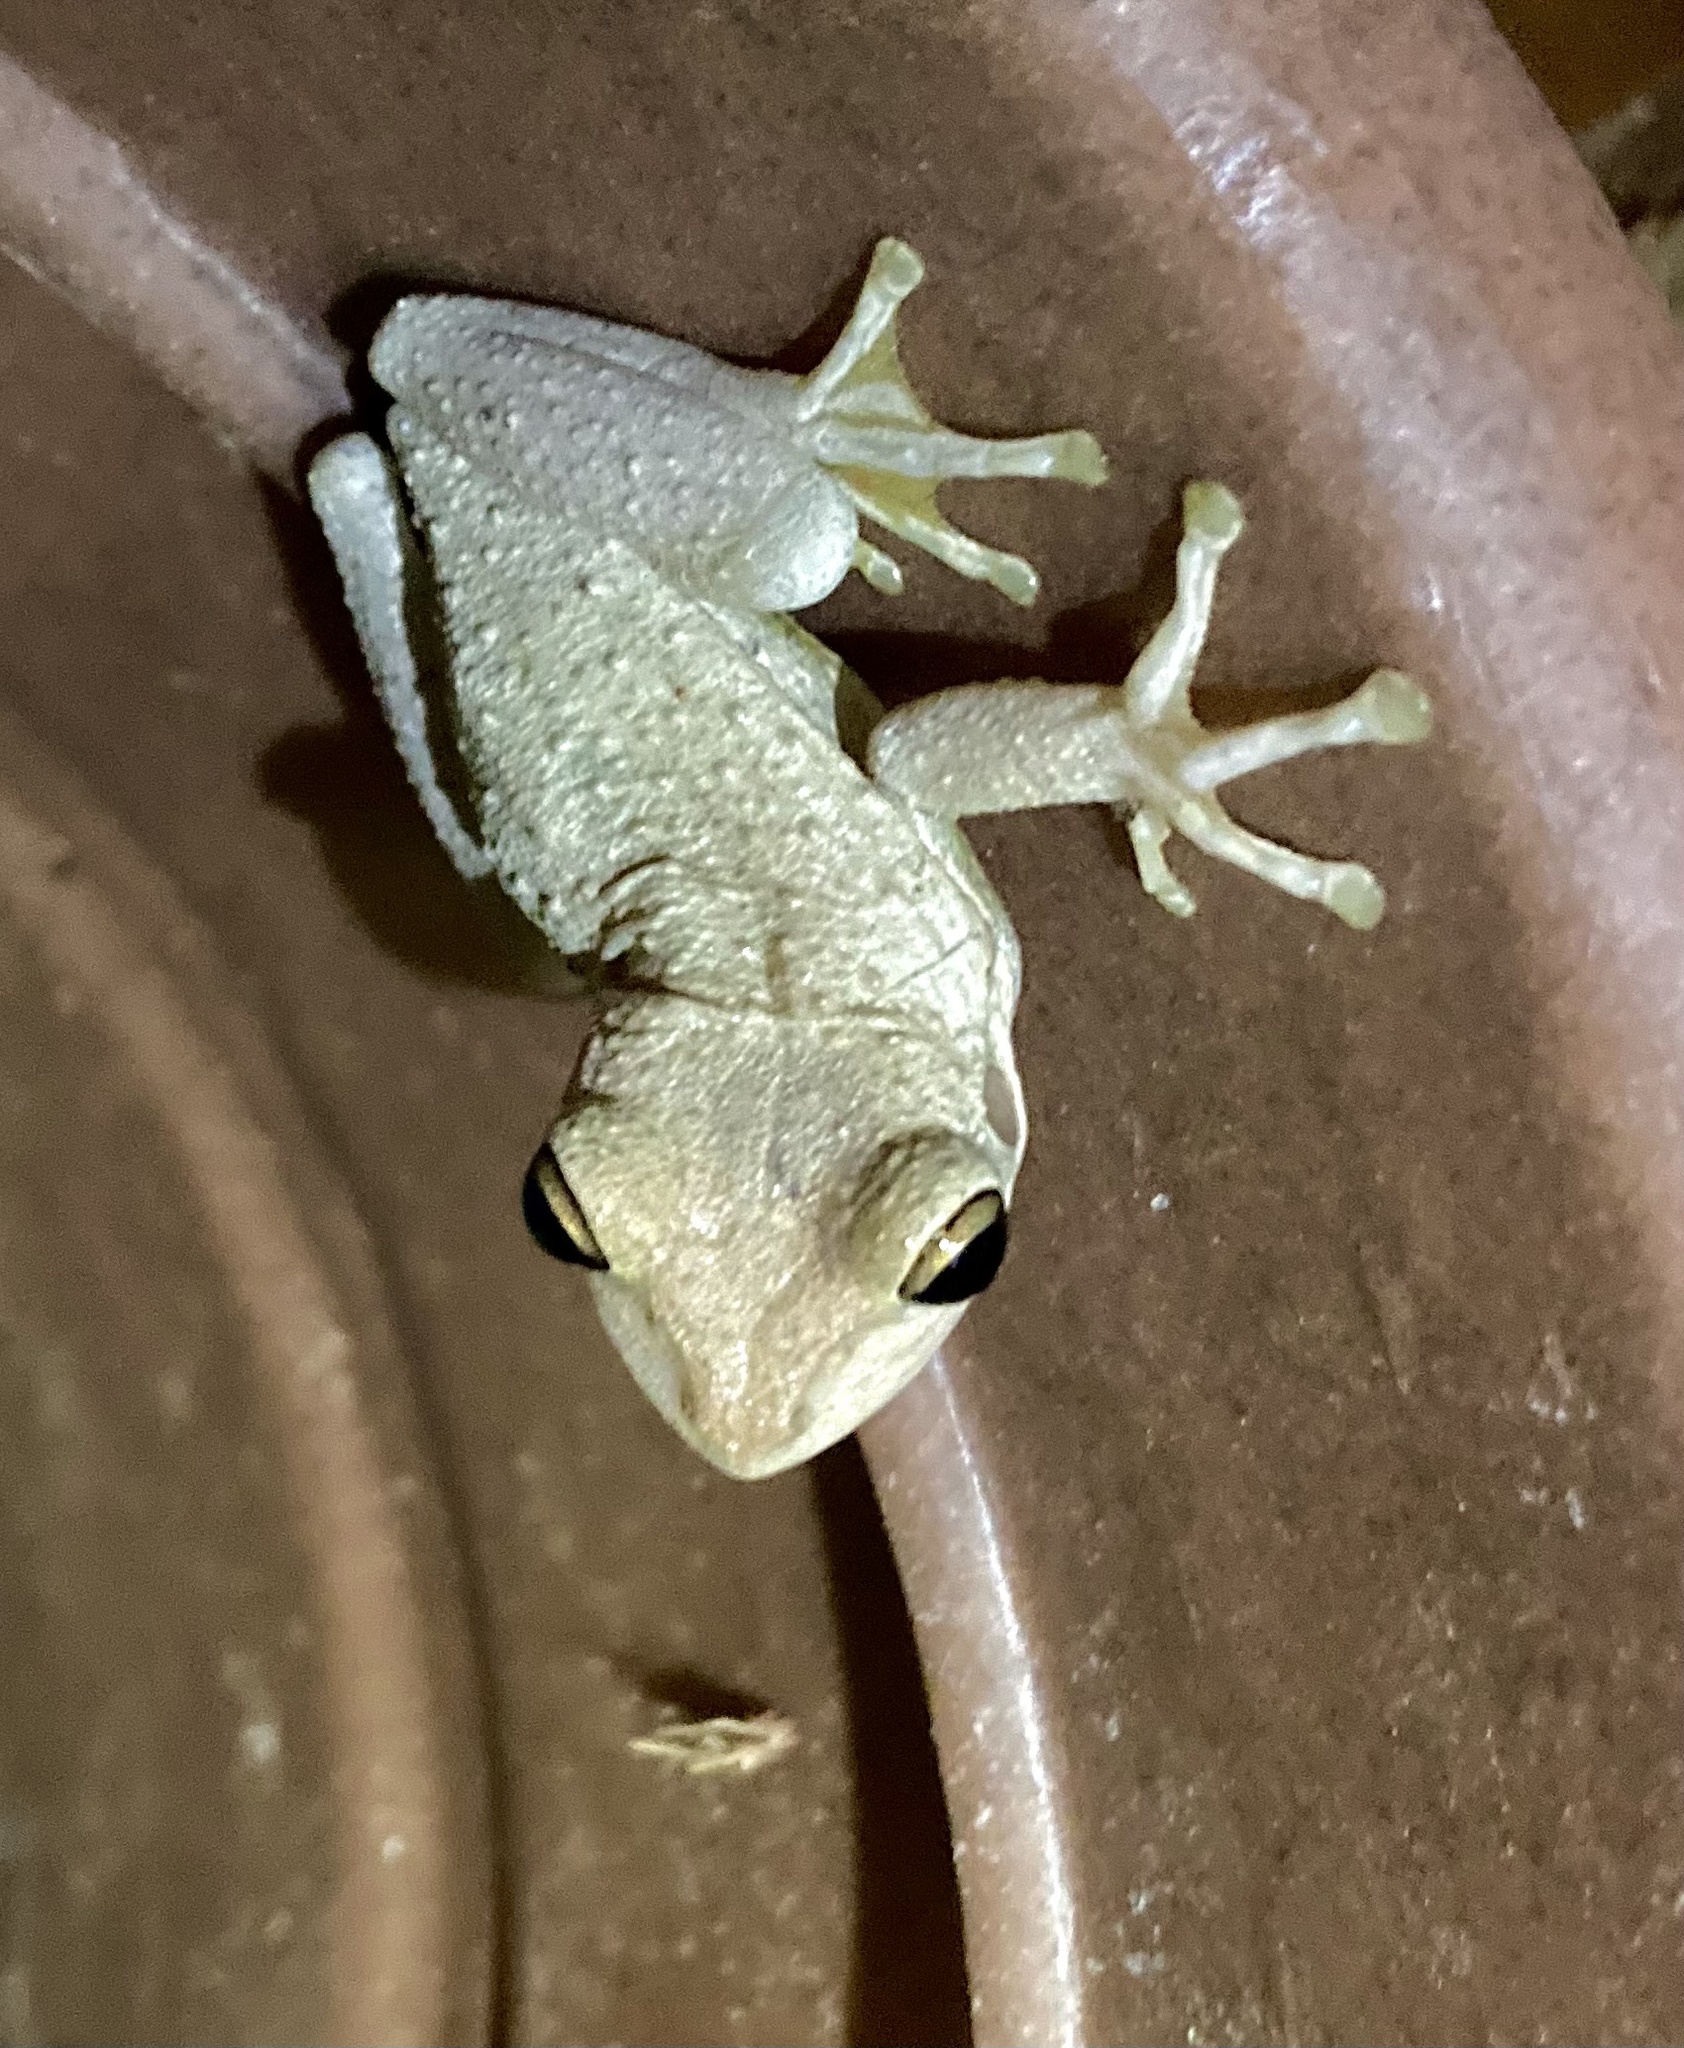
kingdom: Animalia
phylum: Chordata
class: Amphibia
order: Anura
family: Hylidae
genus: Osteopilus
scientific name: Osteopilus septentrionalis
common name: Cuban treefrog
